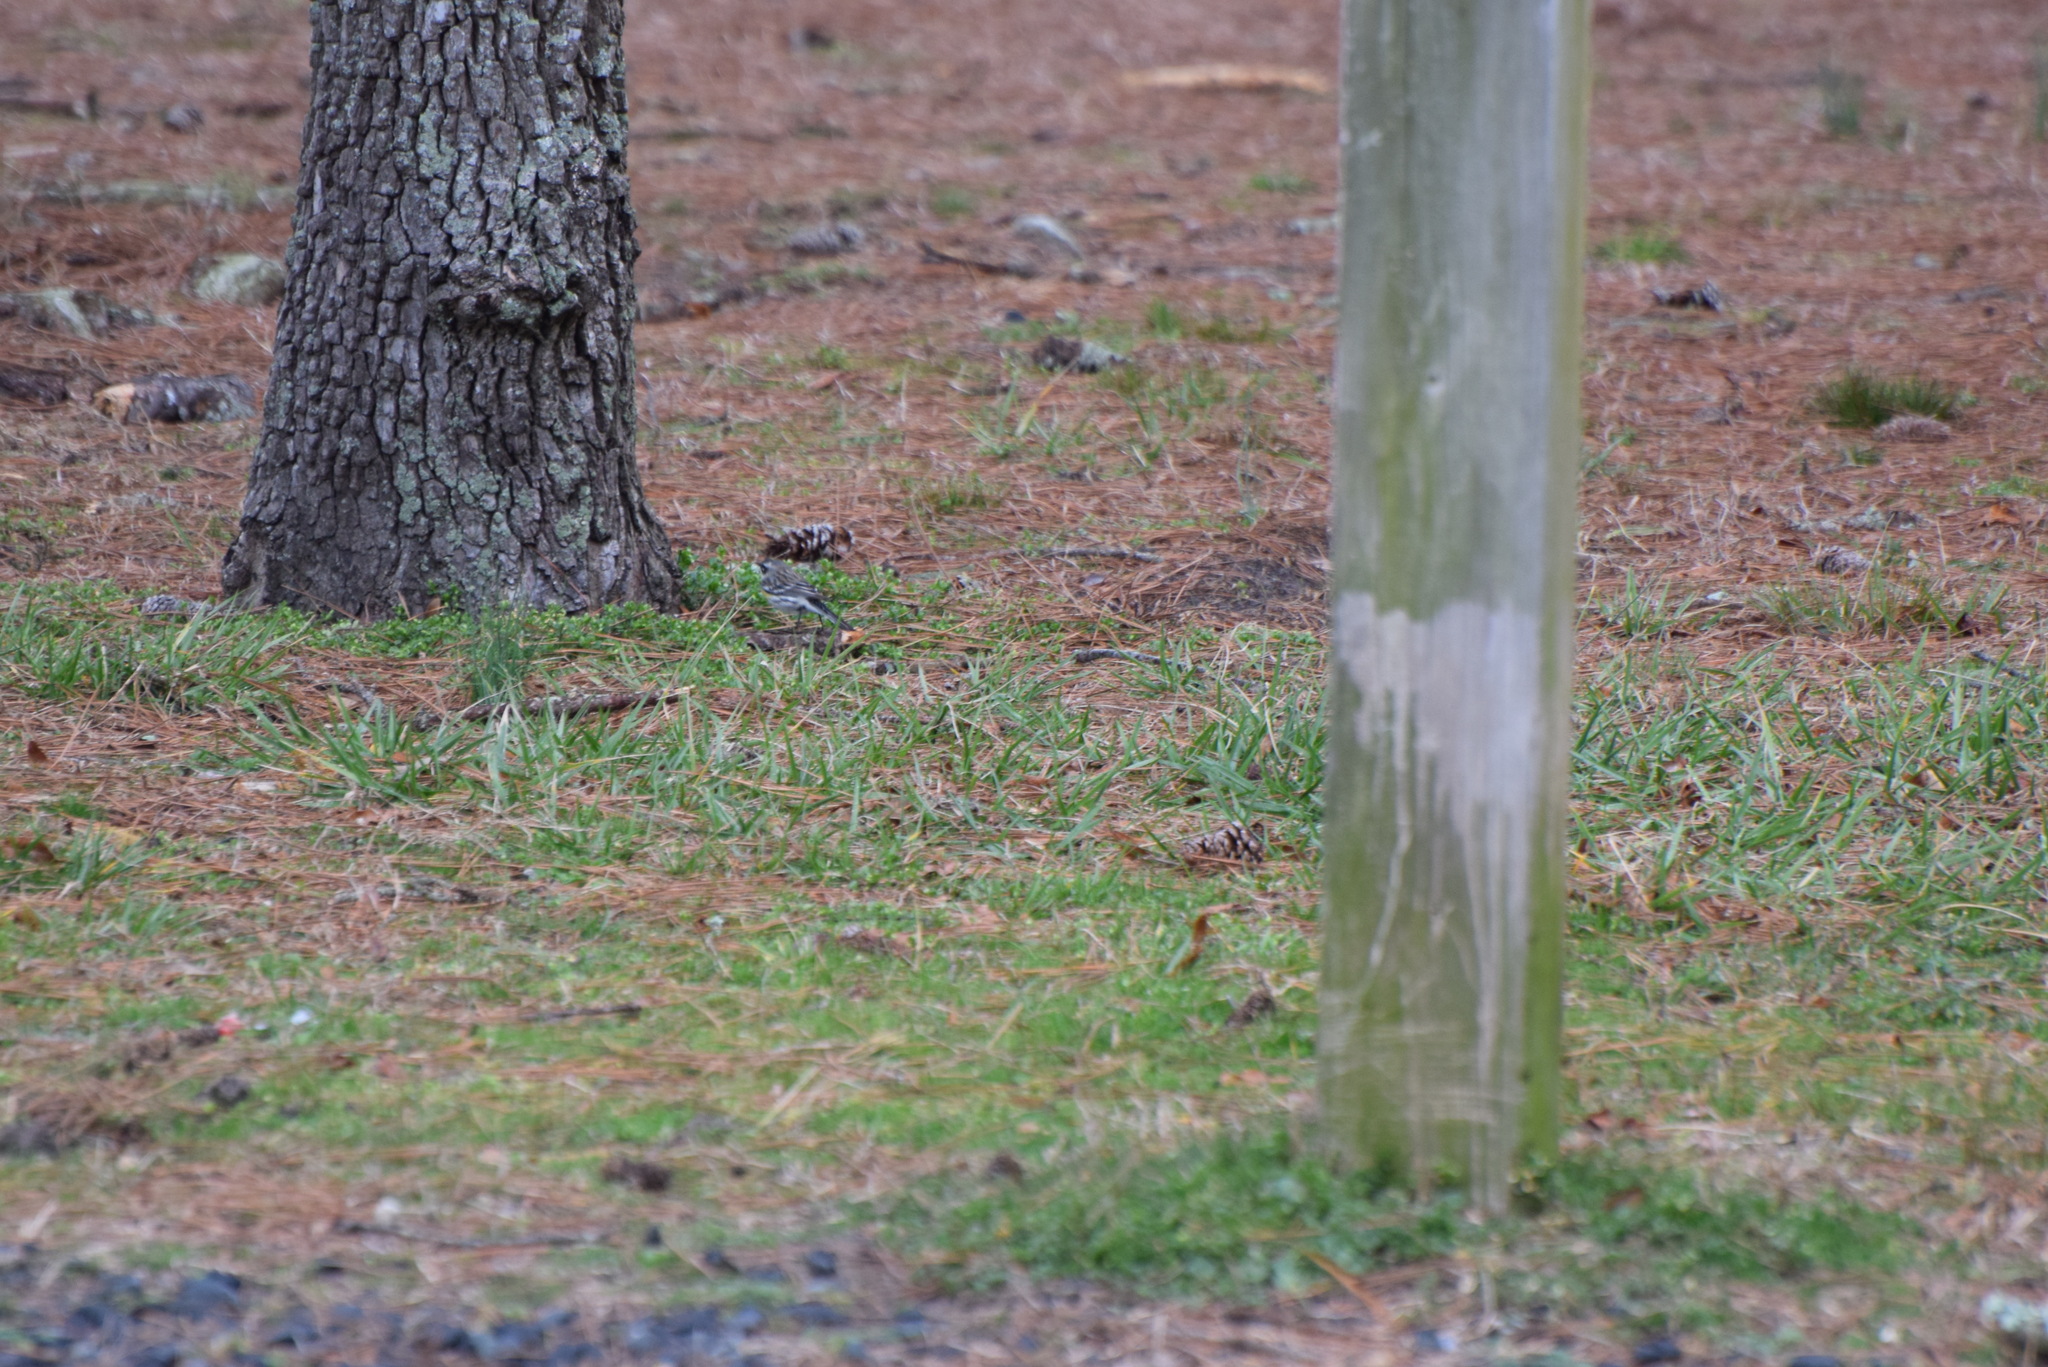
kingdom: Animalia
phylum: Chordata
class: Aves
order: Passeriformes
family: Parulidae
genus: Setophaga
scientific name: Setophaga coronata
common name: Myrtle warbler
